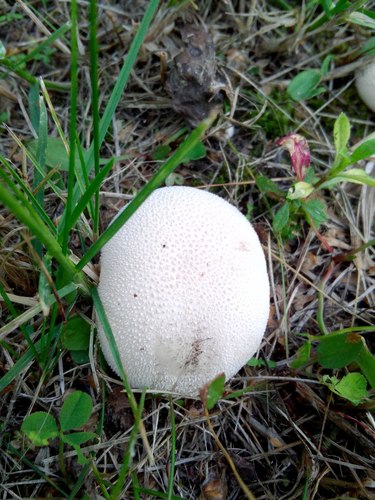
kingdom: Fungi
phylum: Basidiomycota
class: Agaricomycetes
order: Agaricales
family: Lycoperdaceae
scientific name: Lycoperdaceae
